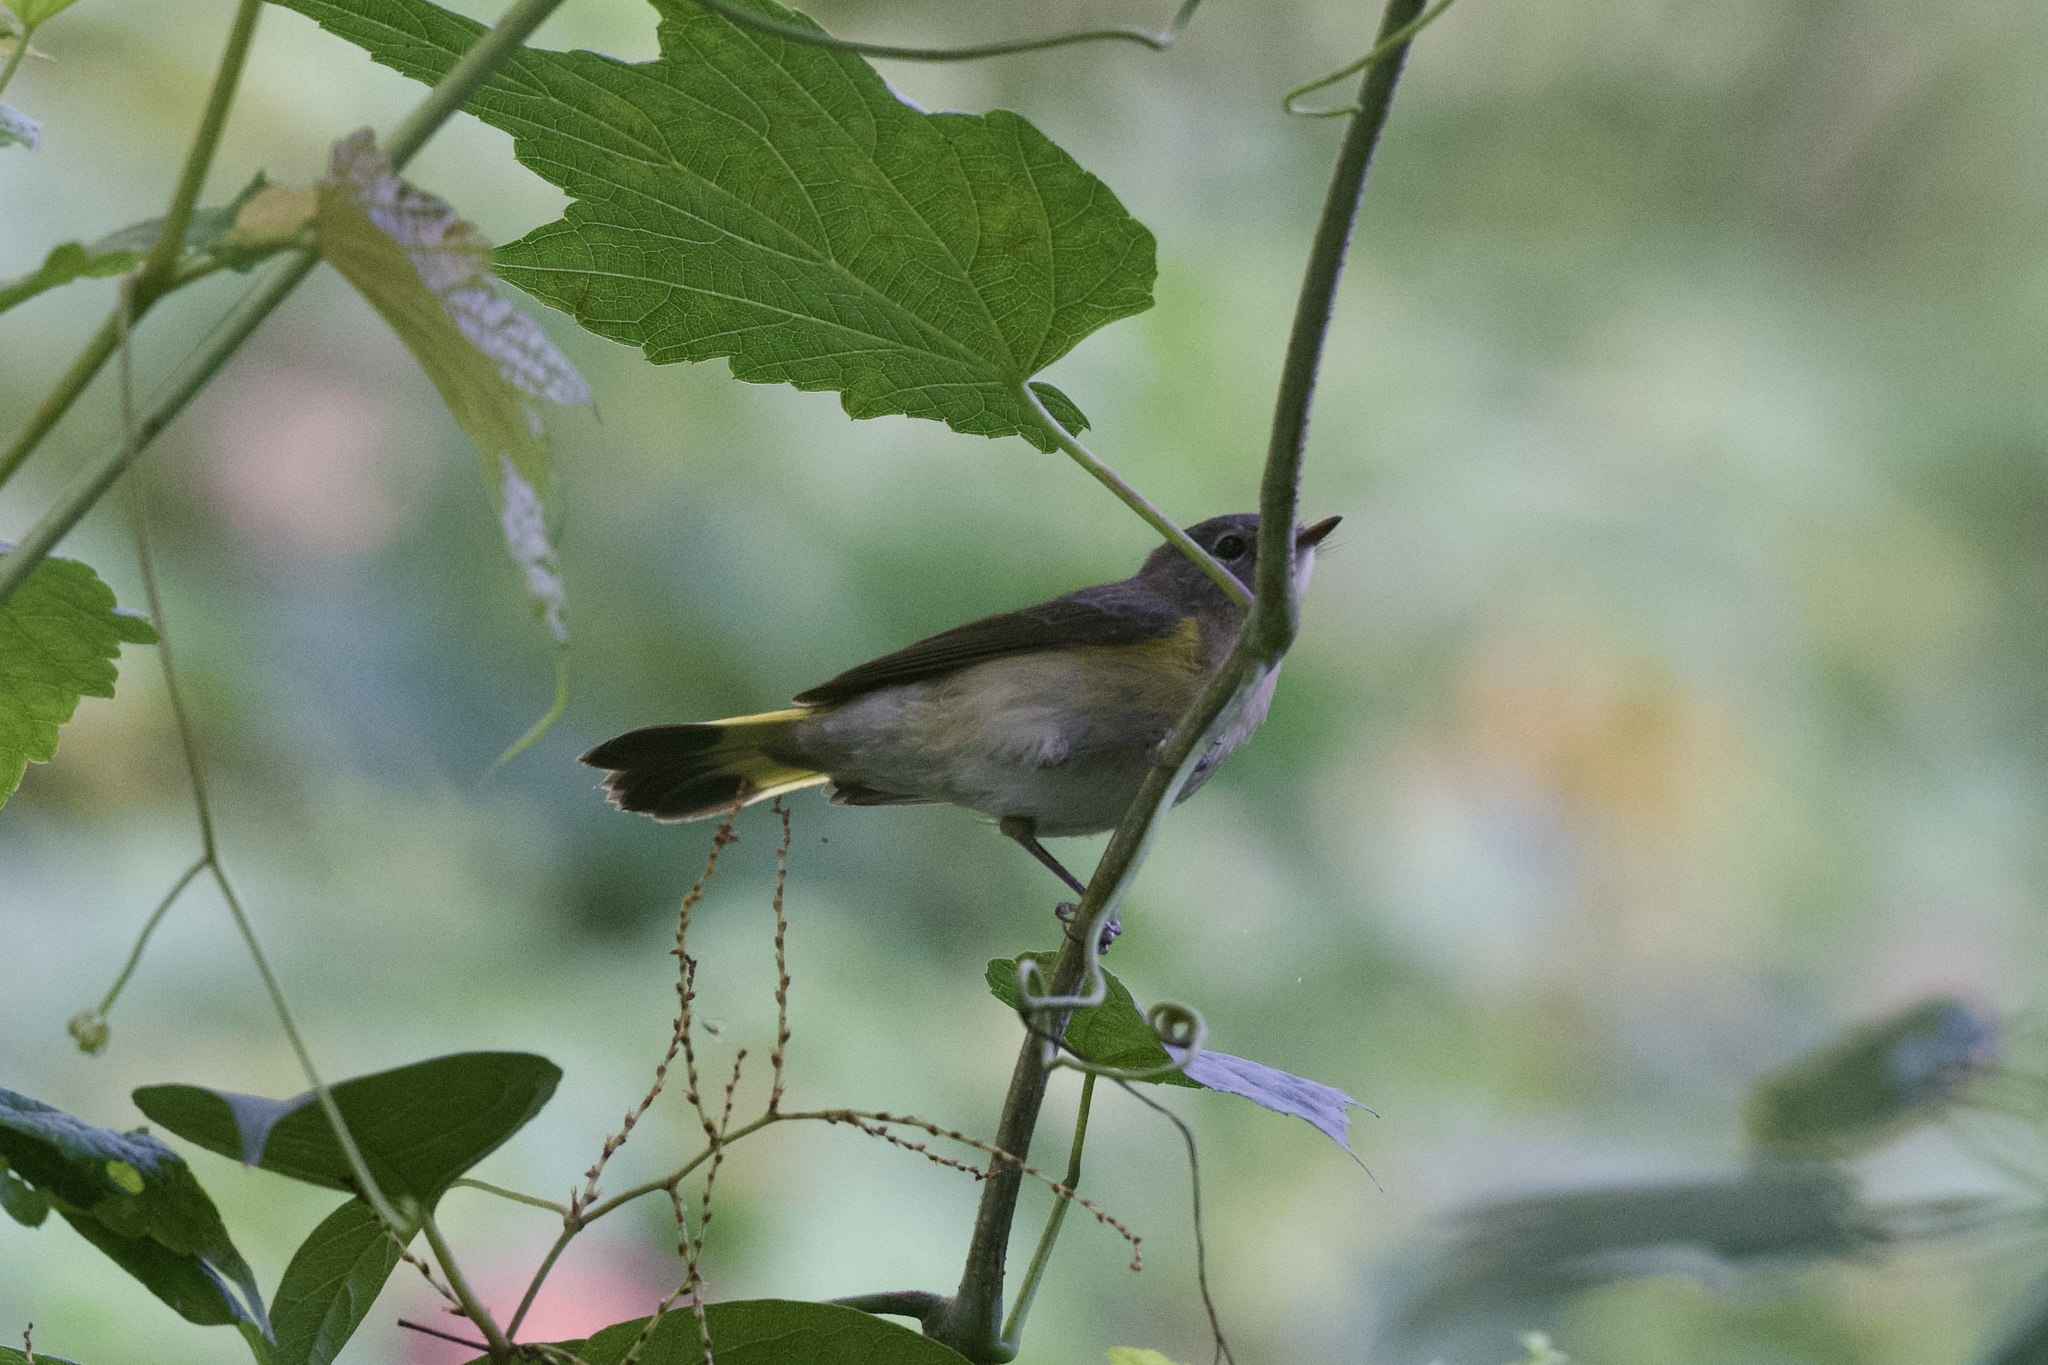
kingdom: Animalia
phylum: Chordata
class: Aves
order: Passeriformes
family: Parulidae
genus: Setophaga
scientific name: Setophaga ruticilla
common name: American redstart
